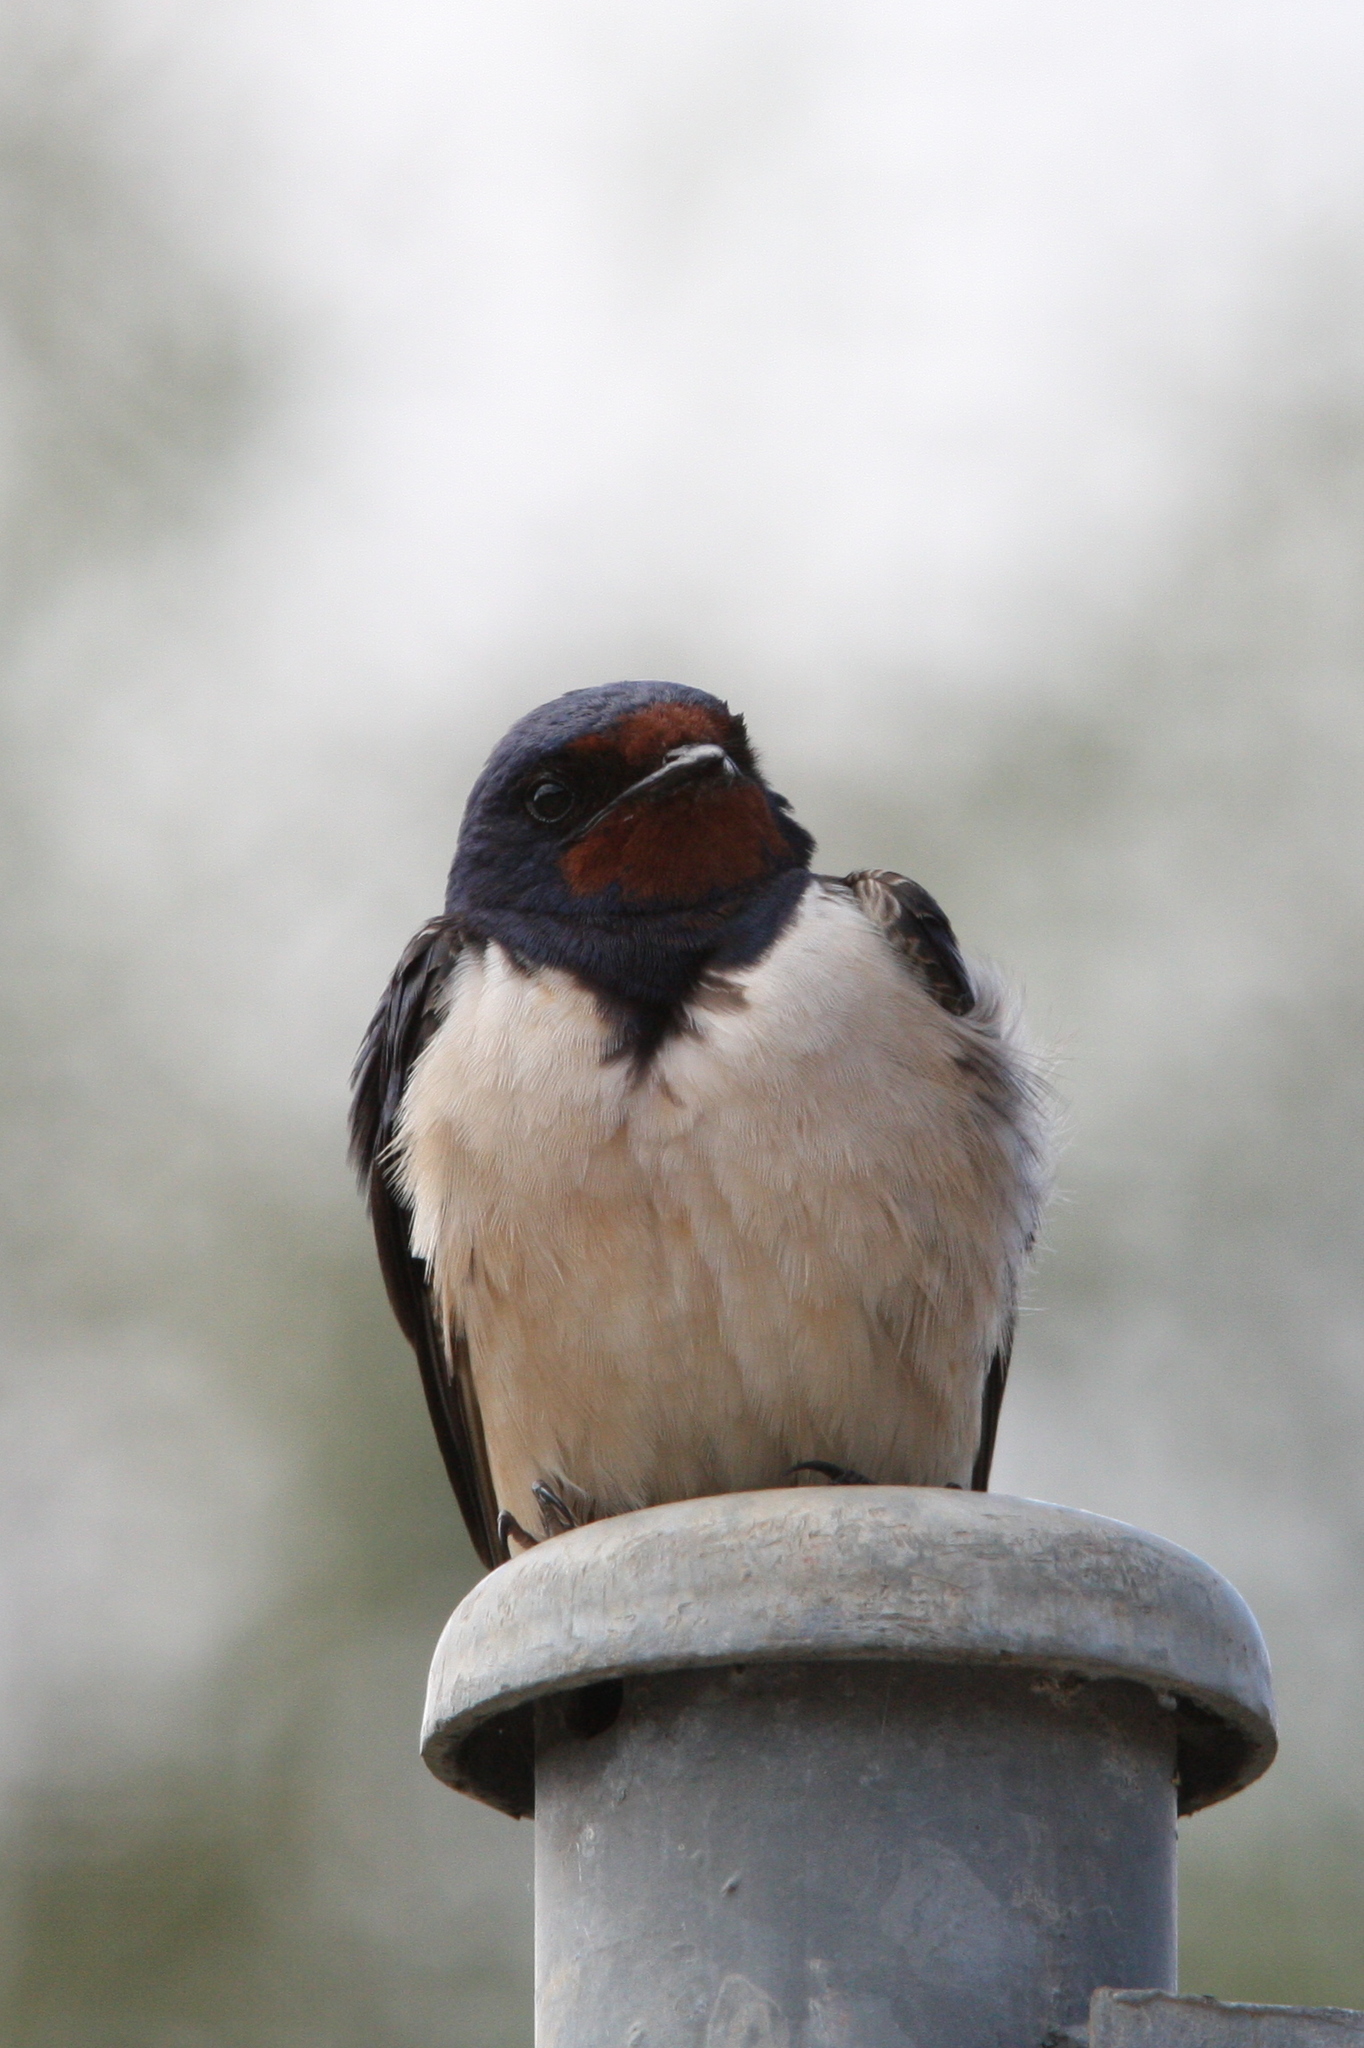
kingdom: Animalia
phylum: Chordata
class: Aves
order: Passeriformes
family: Hirundinidae
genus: Hirundo
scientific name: Hirundo rustica
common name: Barn swallow
